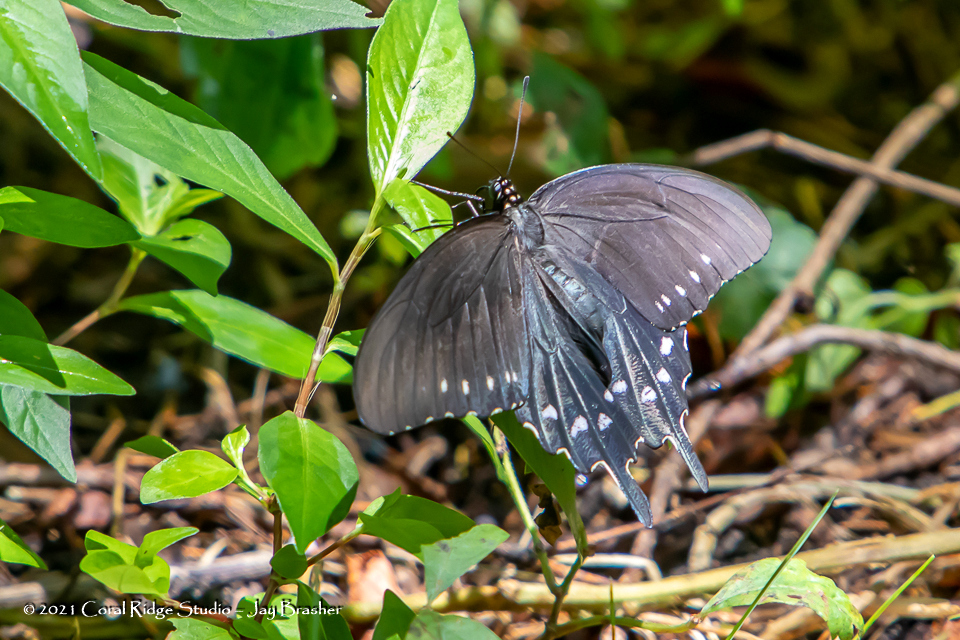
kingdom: Animalia
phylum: Arthropoda
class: Insecta
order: Lepidoptera
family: Papilionidae
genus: Battus
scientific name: Battus philenor
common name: Pipevine swallowtail
